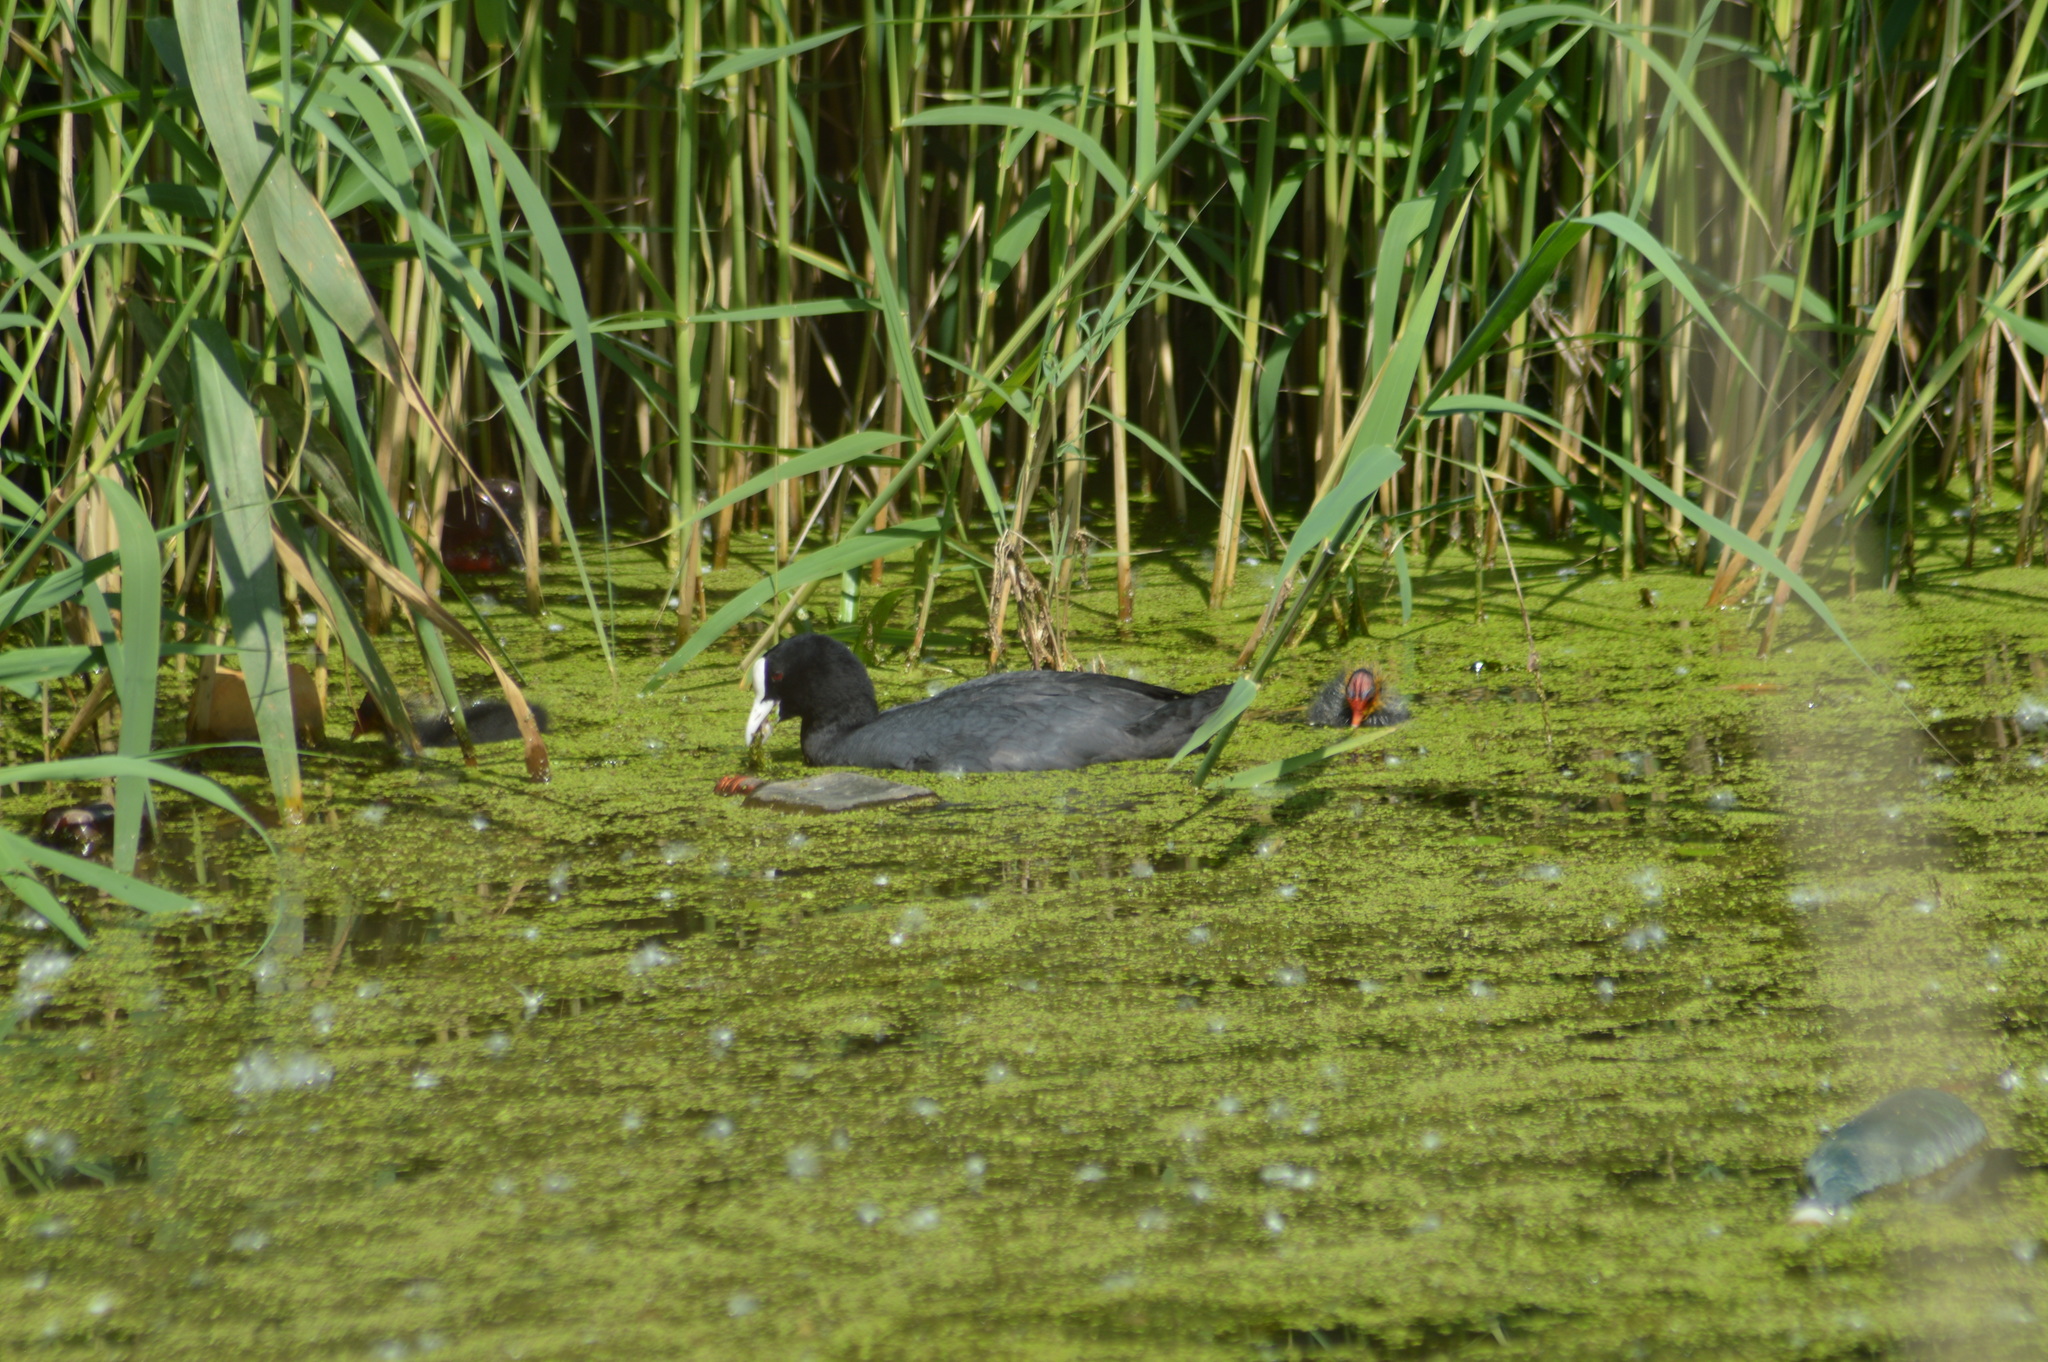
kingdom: Animalia
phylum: Chordata
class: Aves
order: Gruiformes
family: Rallidae
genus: Fulica
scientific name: Fulica atra
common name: Eurasian coot
